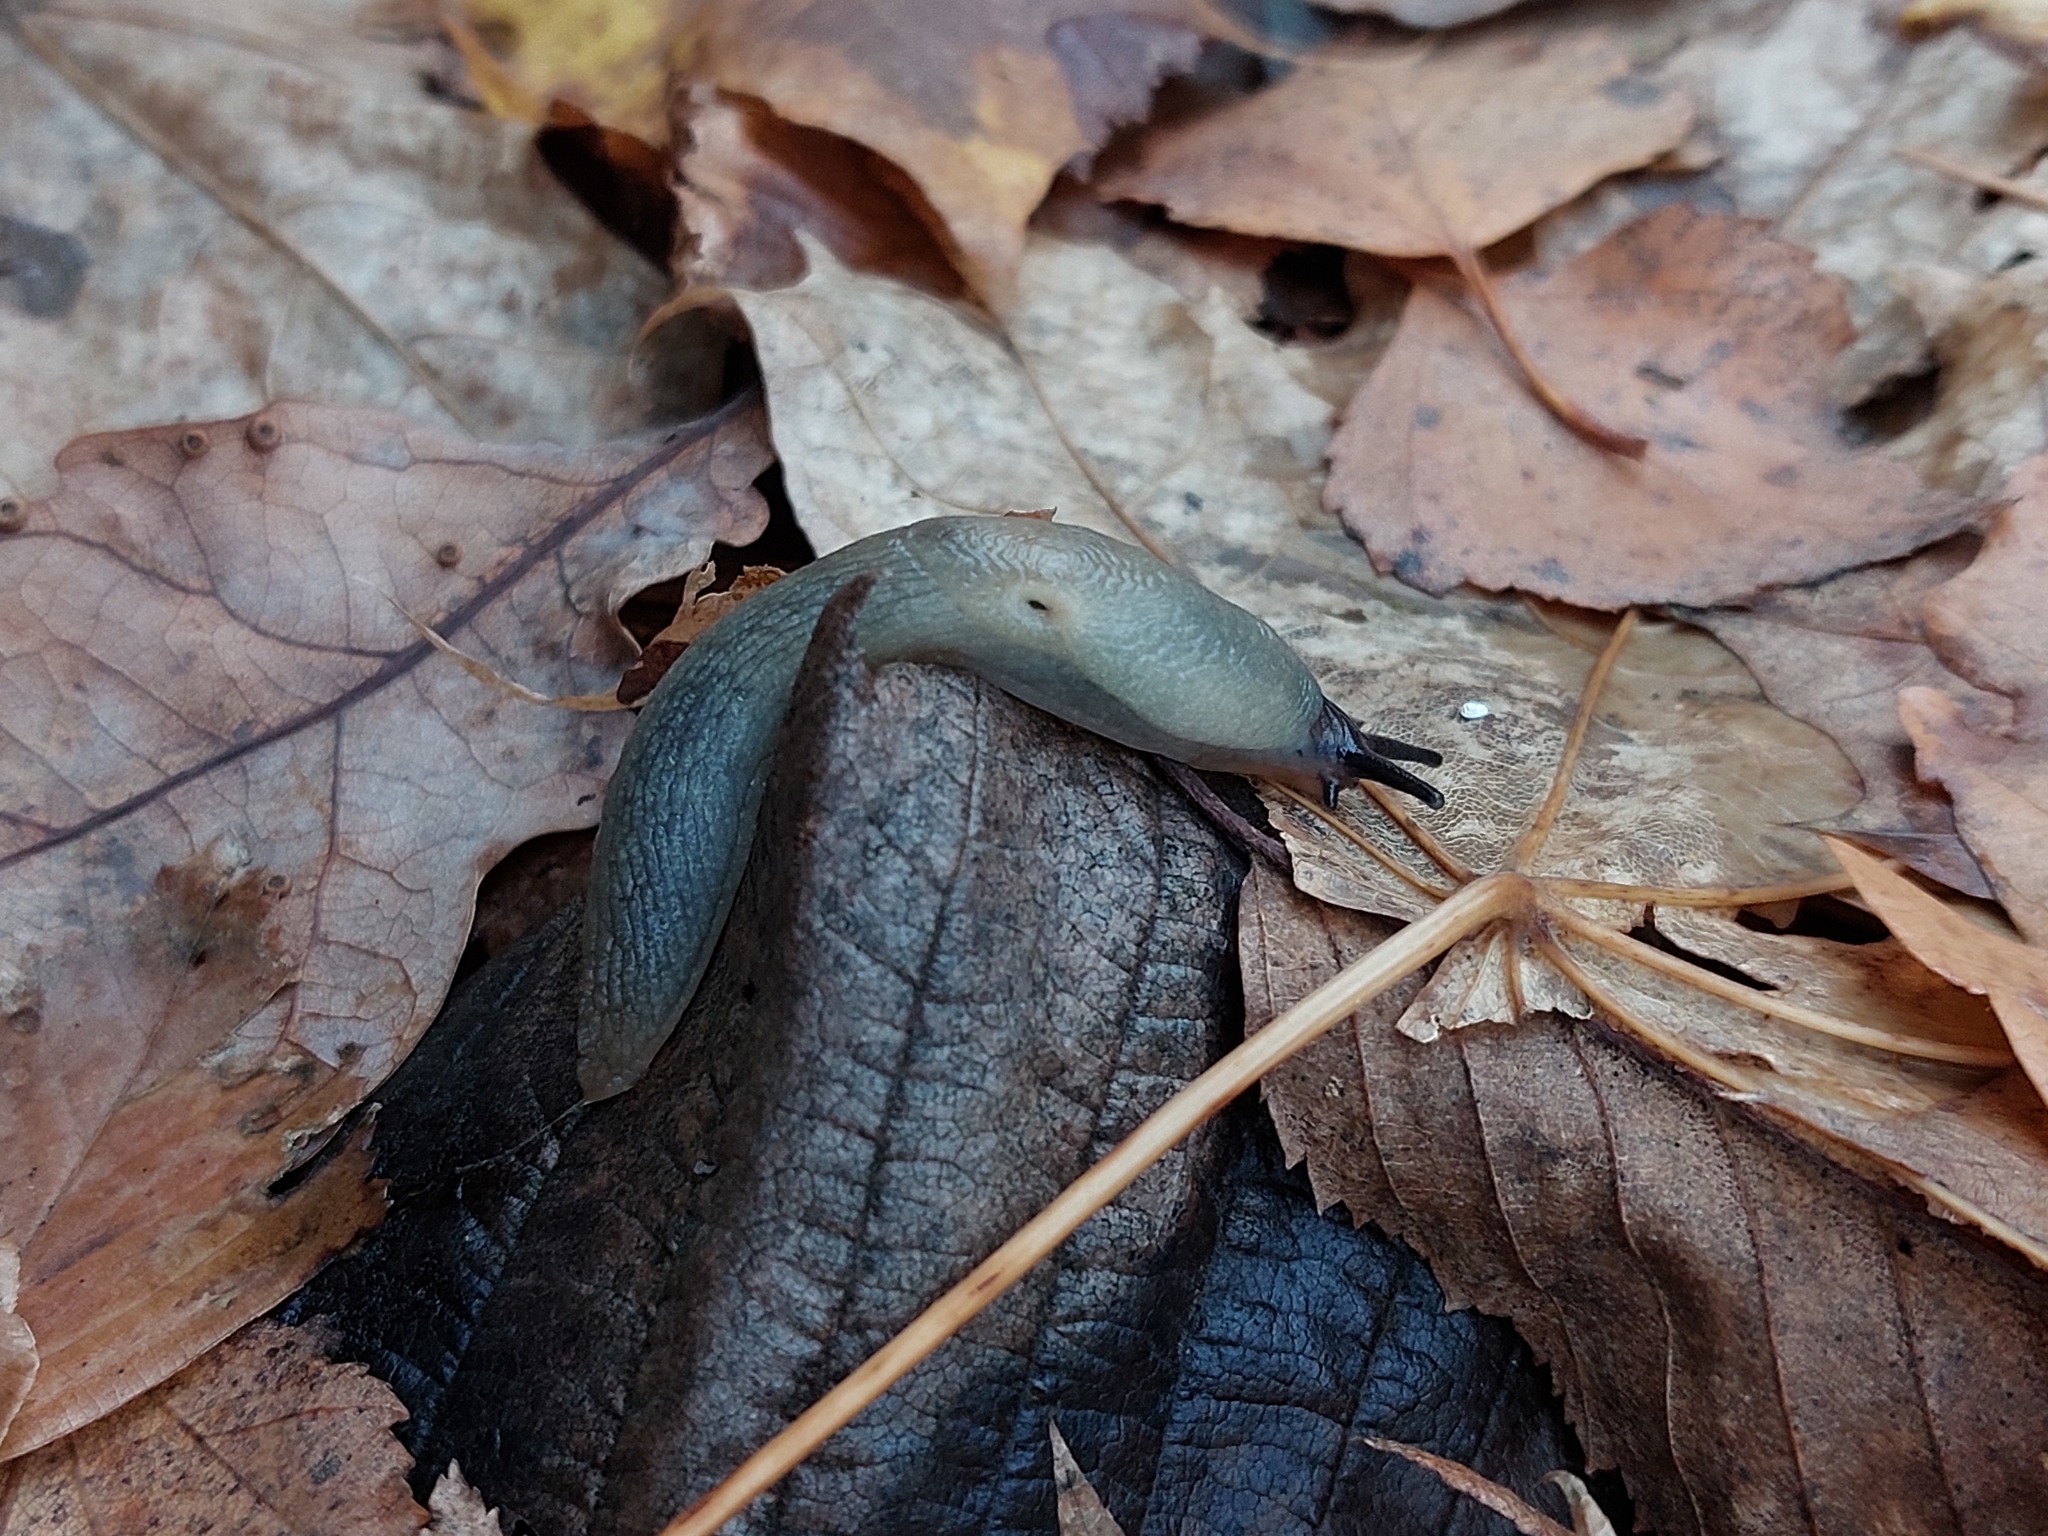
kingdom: Animalia
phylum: Mollusca
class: Gastropoda
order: Stylommatophora
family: Agriolimacidae
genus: Krynickillus
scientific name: Krynickillus melanocephalus
